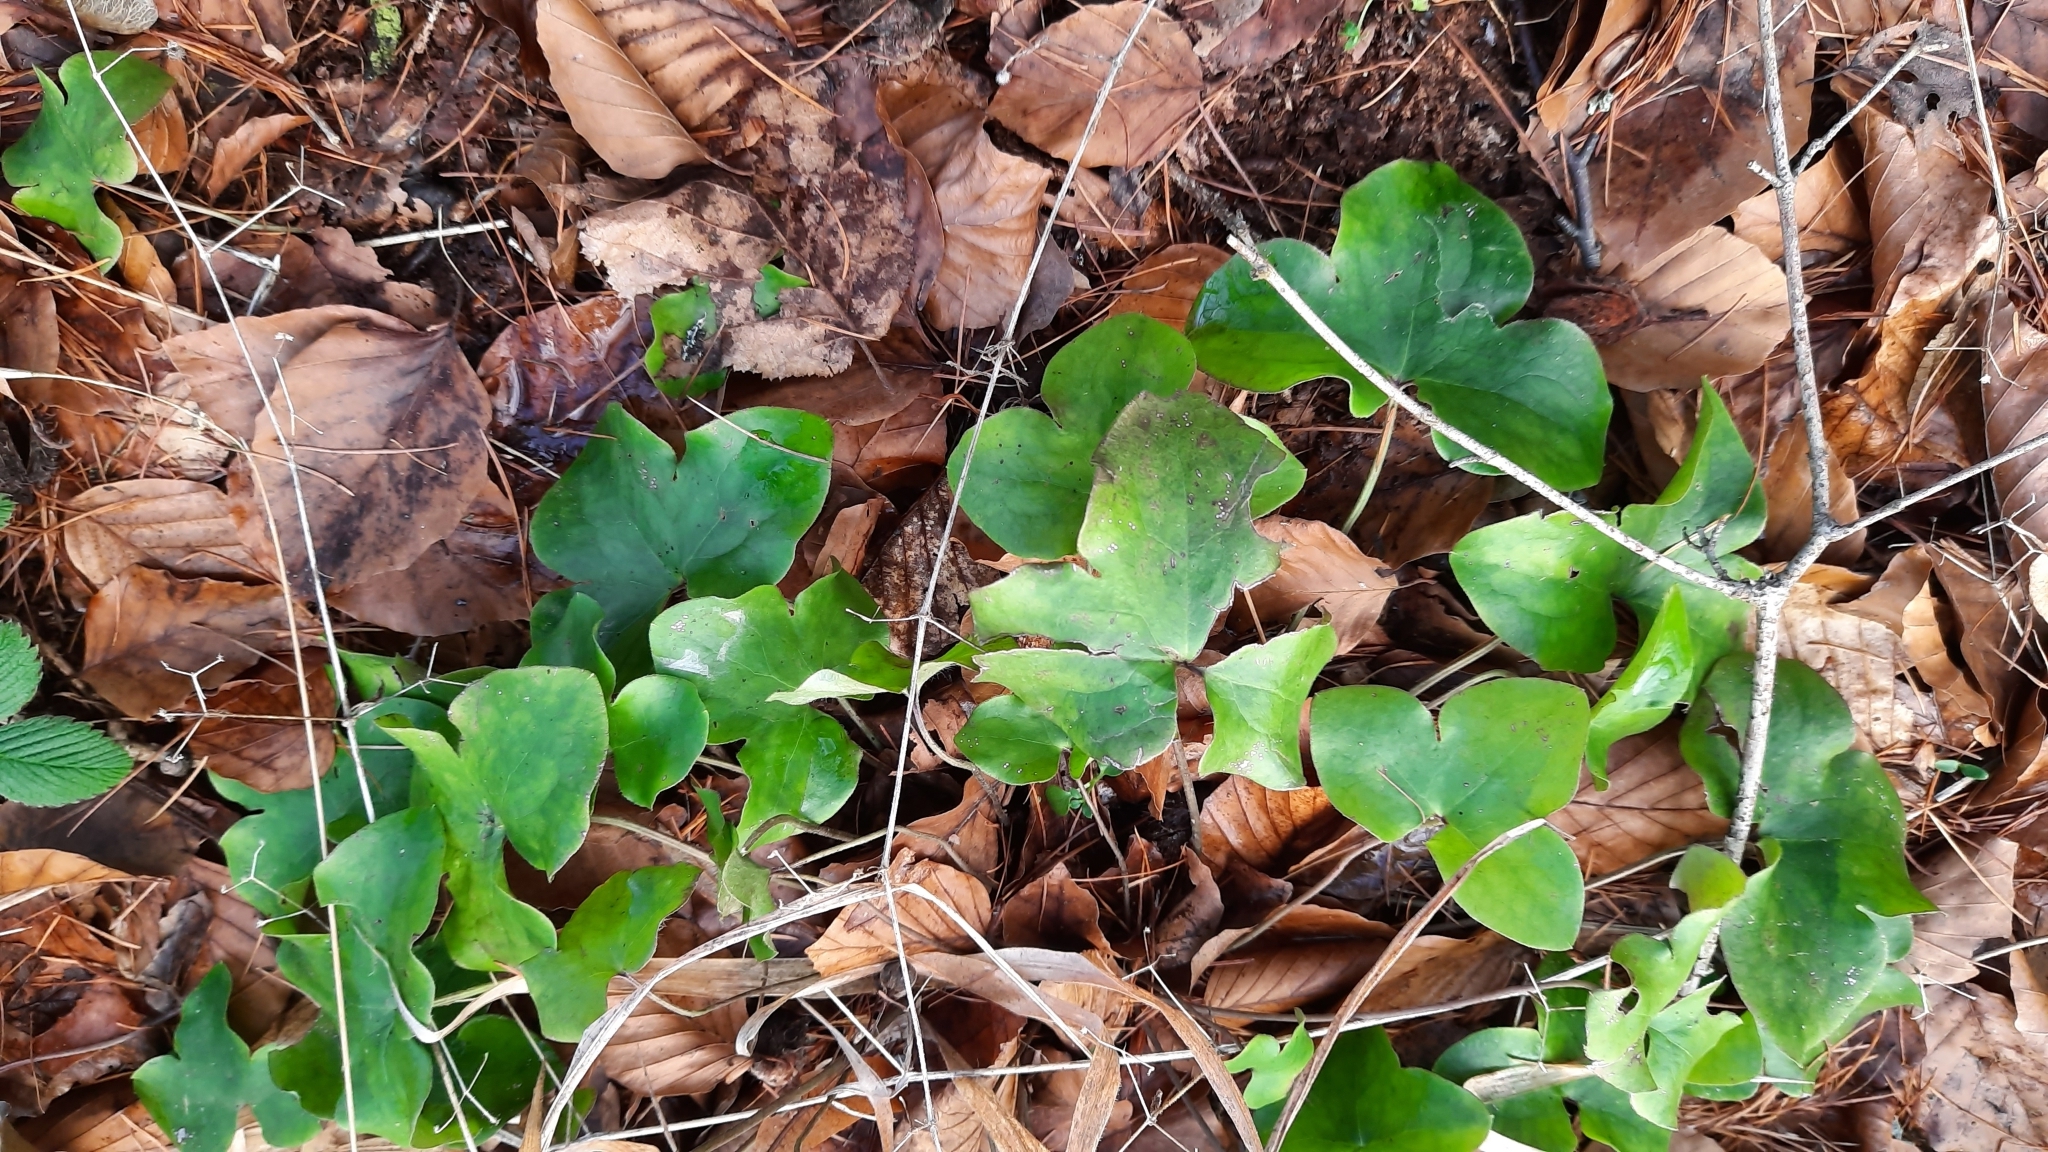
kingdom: Plantae
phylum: Tracheophyta
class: Magnoliopsida
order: Ranunculales
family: Ranunculaceae
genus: Hepatica
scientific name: Hepatica nobilis
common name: Liverleaf
